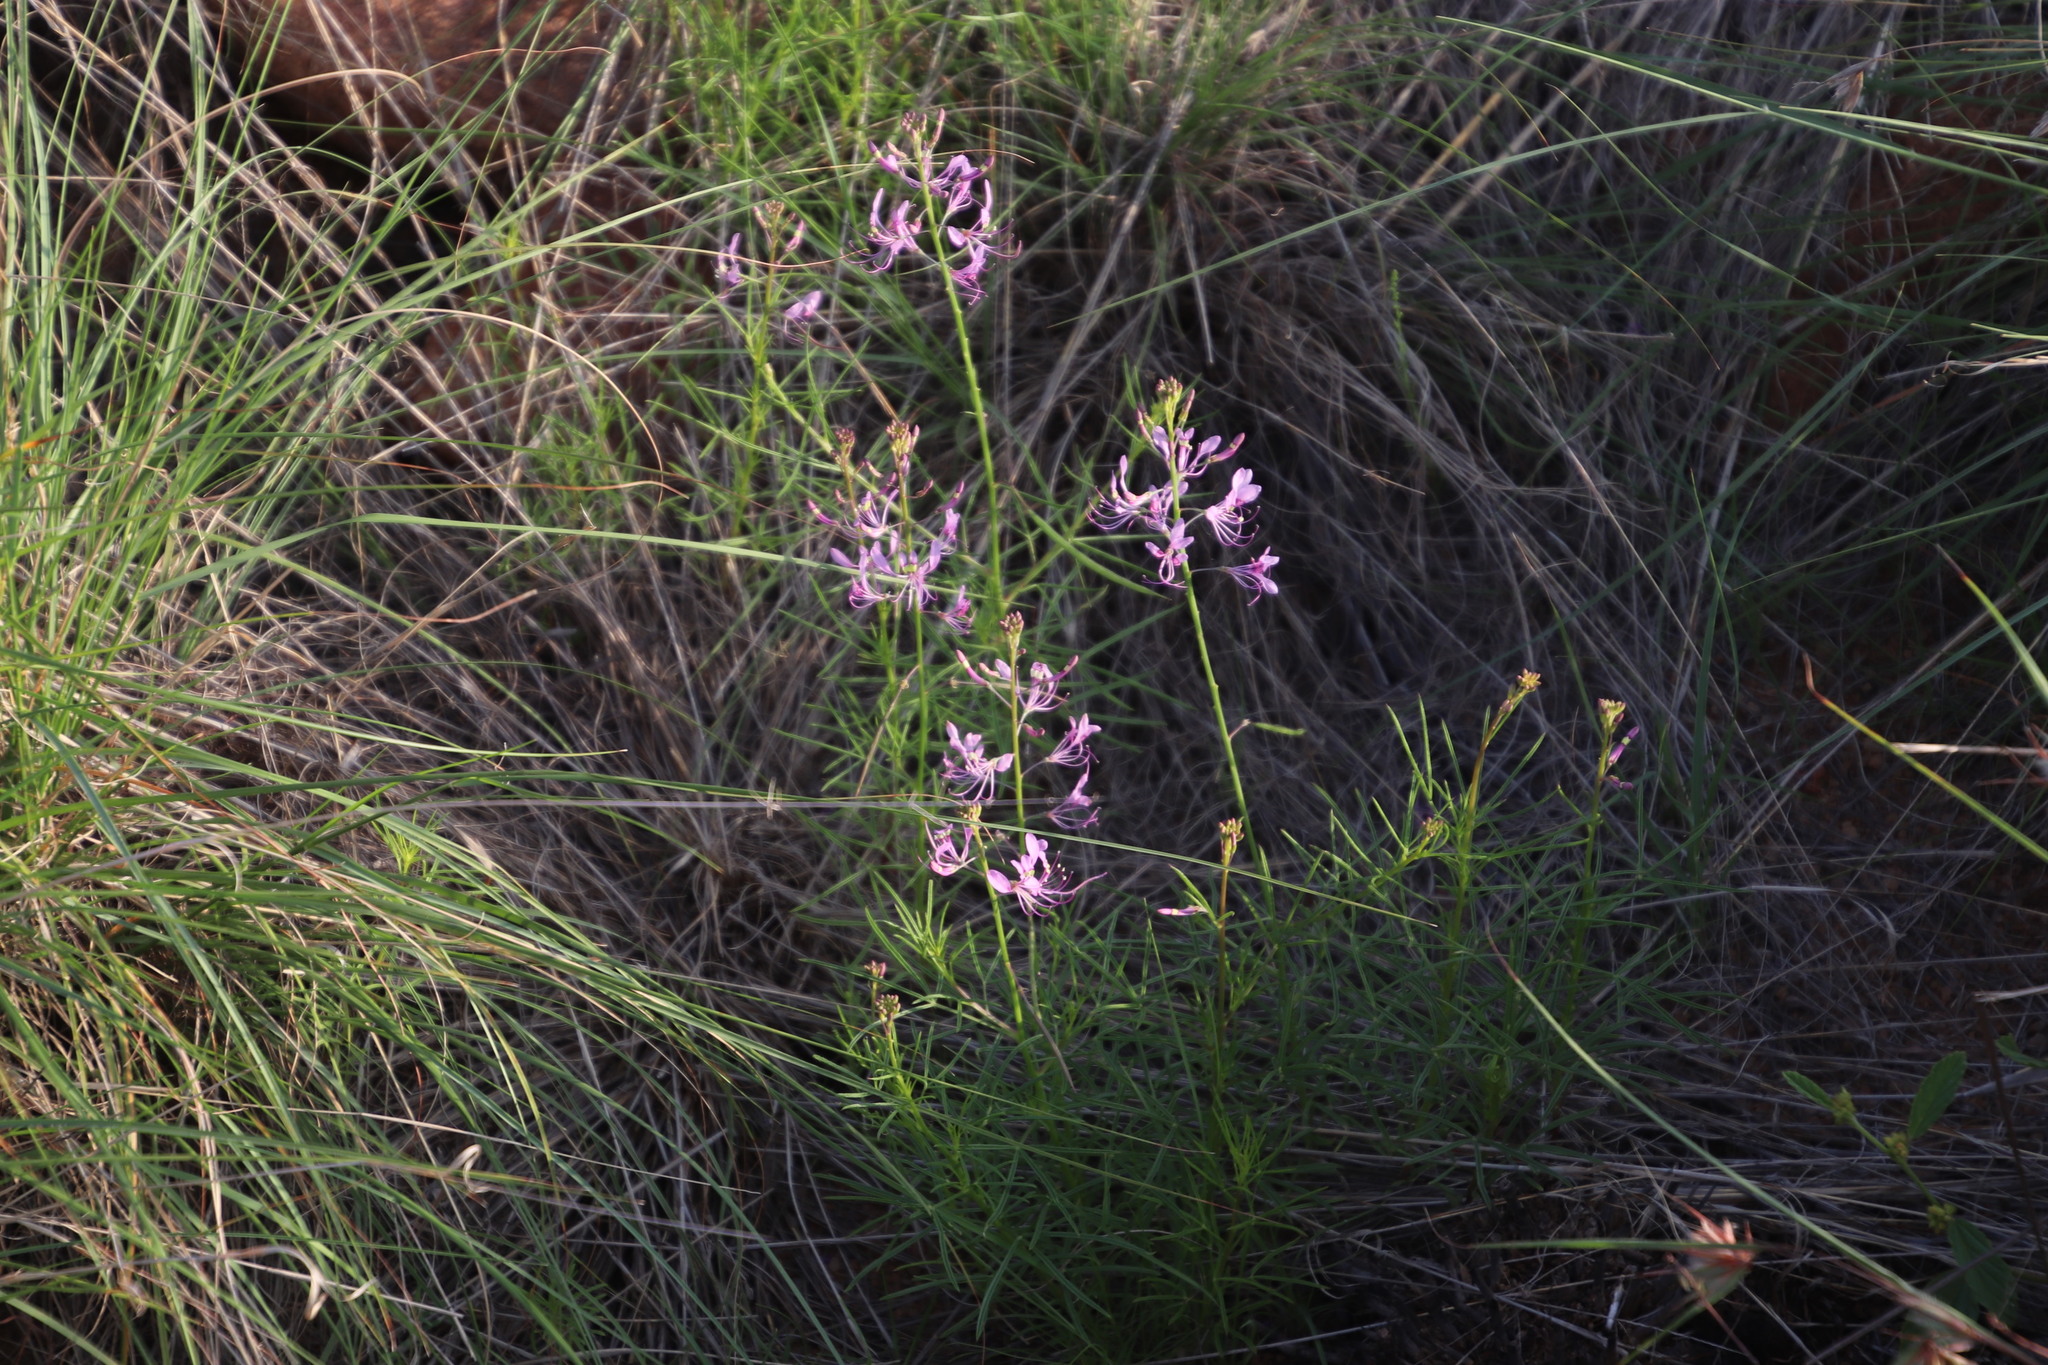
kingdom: Plantae
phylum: Tracheophyta
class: Magnoliopsida
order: Brassicales
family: Cleomaceae
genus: Sieruela
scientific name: Sieruela maculata
